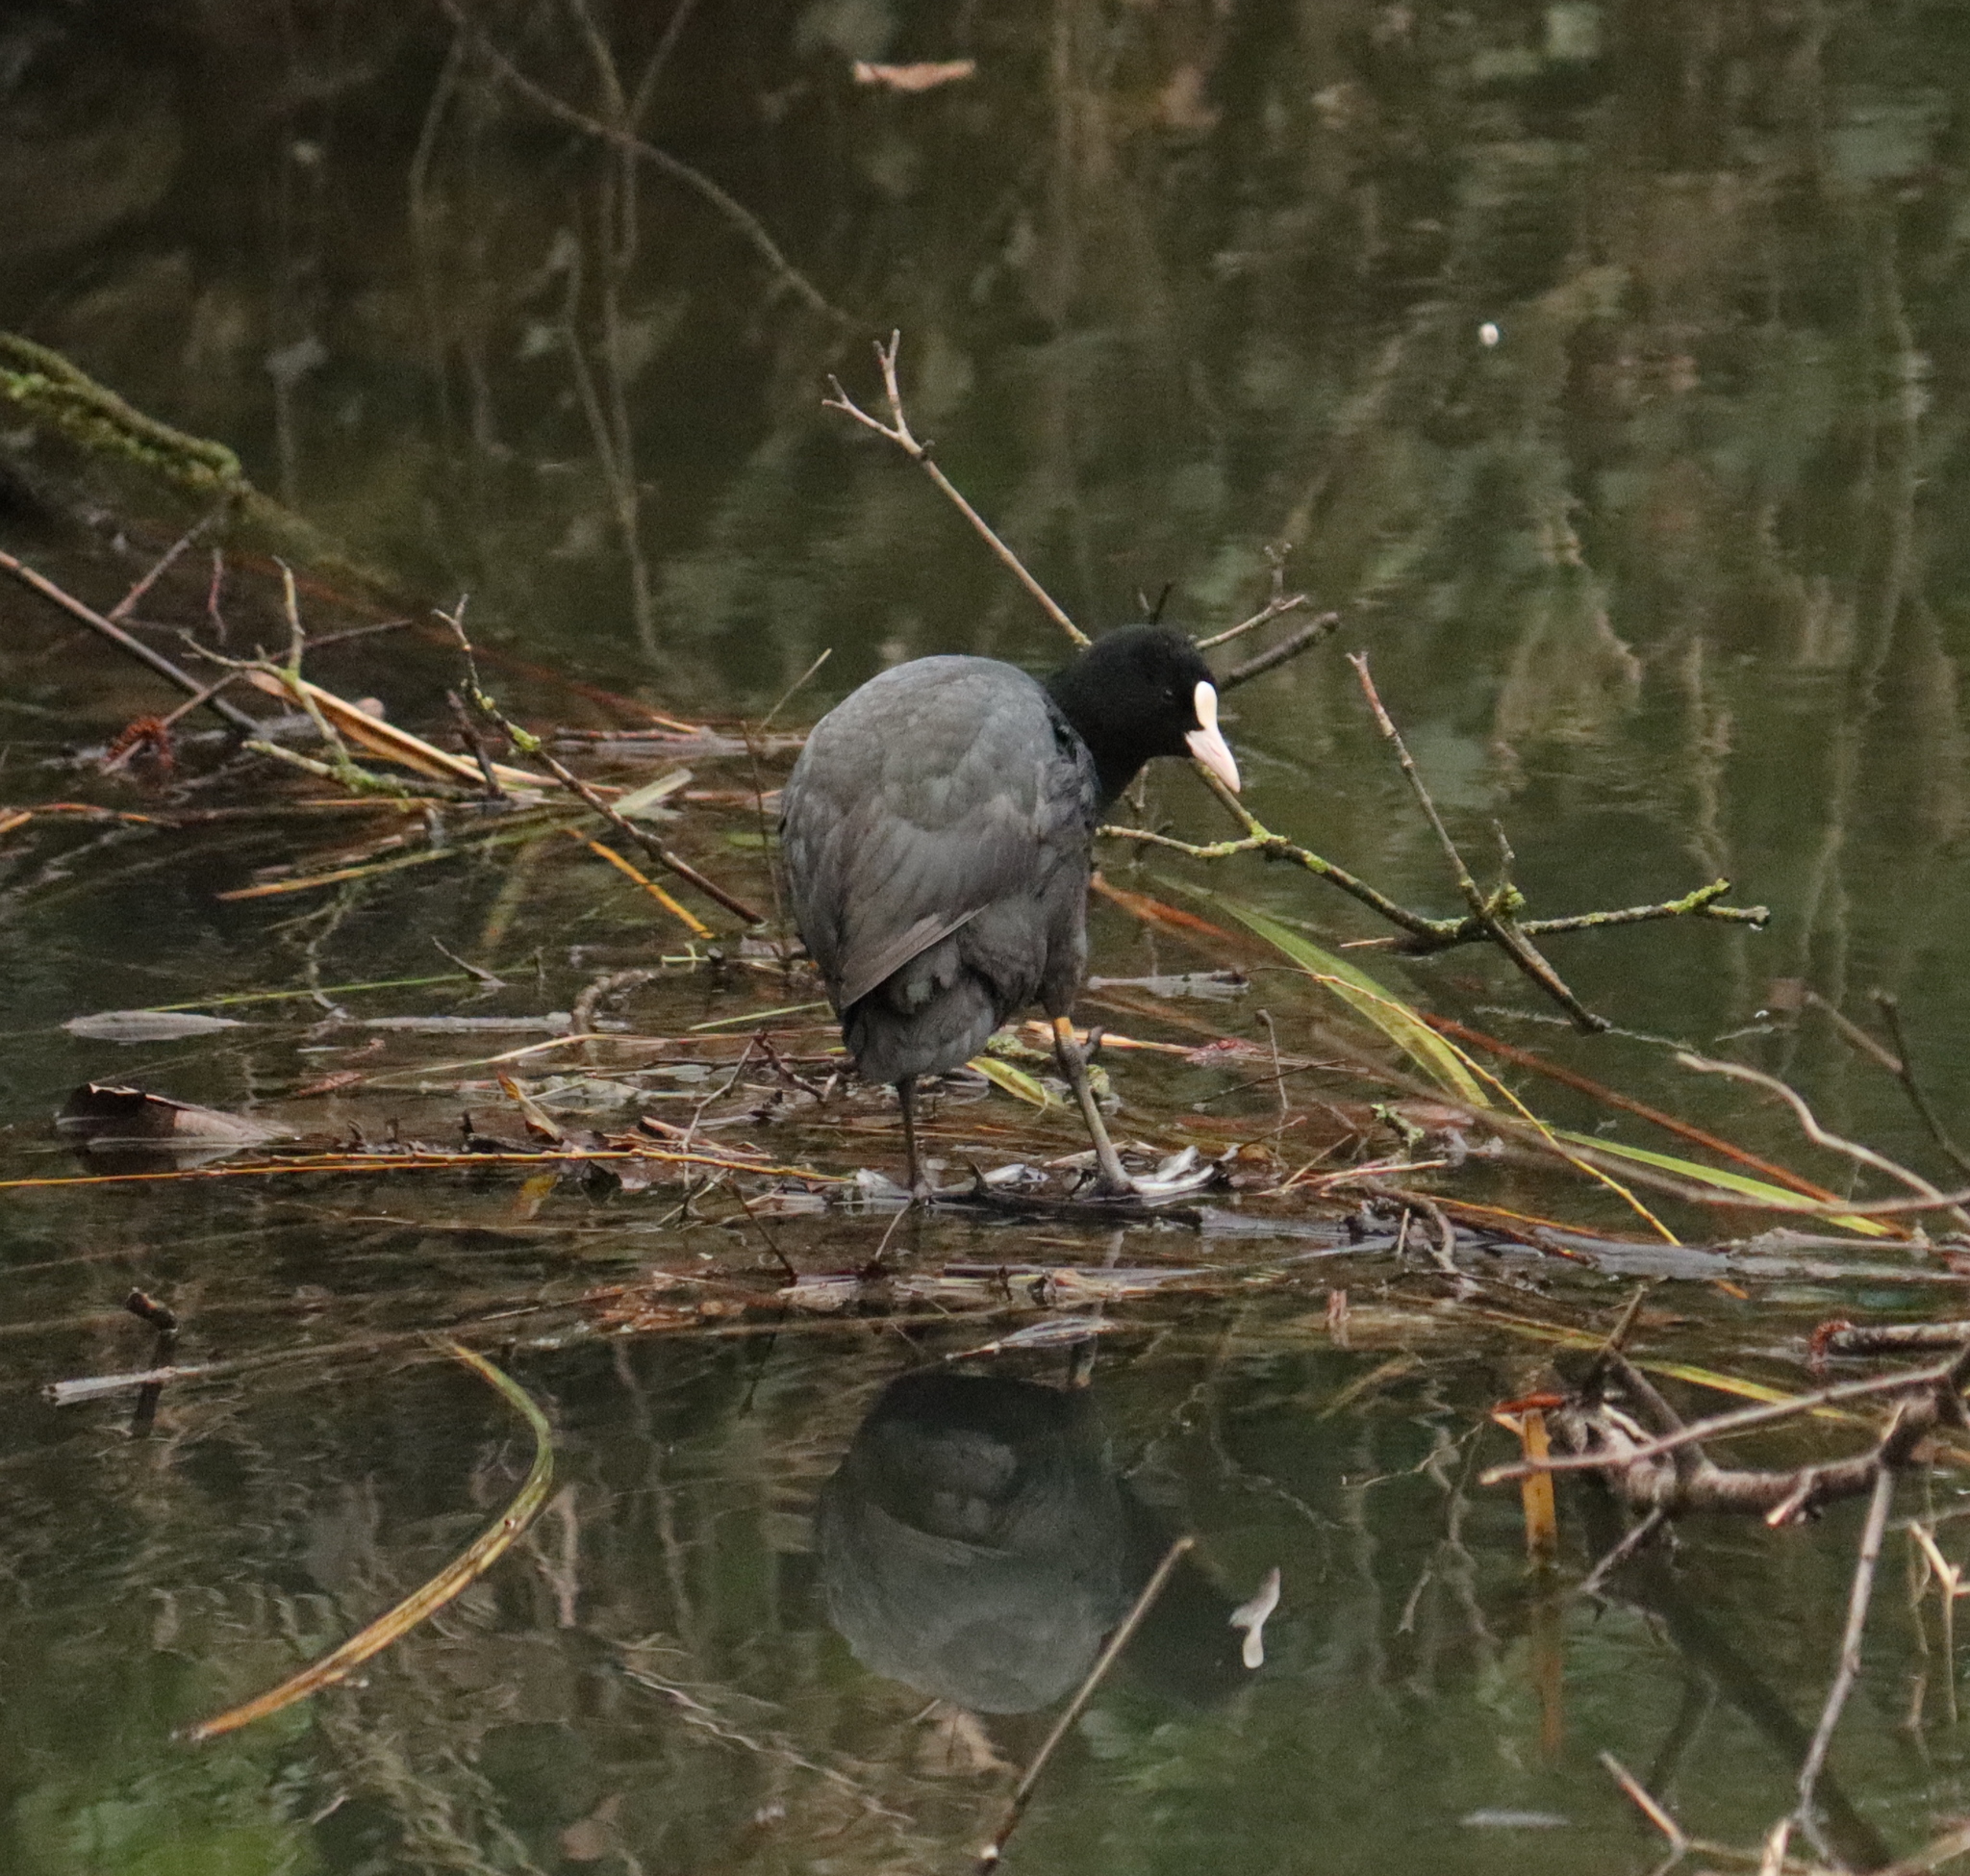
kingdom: Animalia
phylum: Chordata
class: Aves
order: Gruiformes
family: Rallidae
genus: Fulica
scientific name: Fulica atra
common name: Eurasian coot
